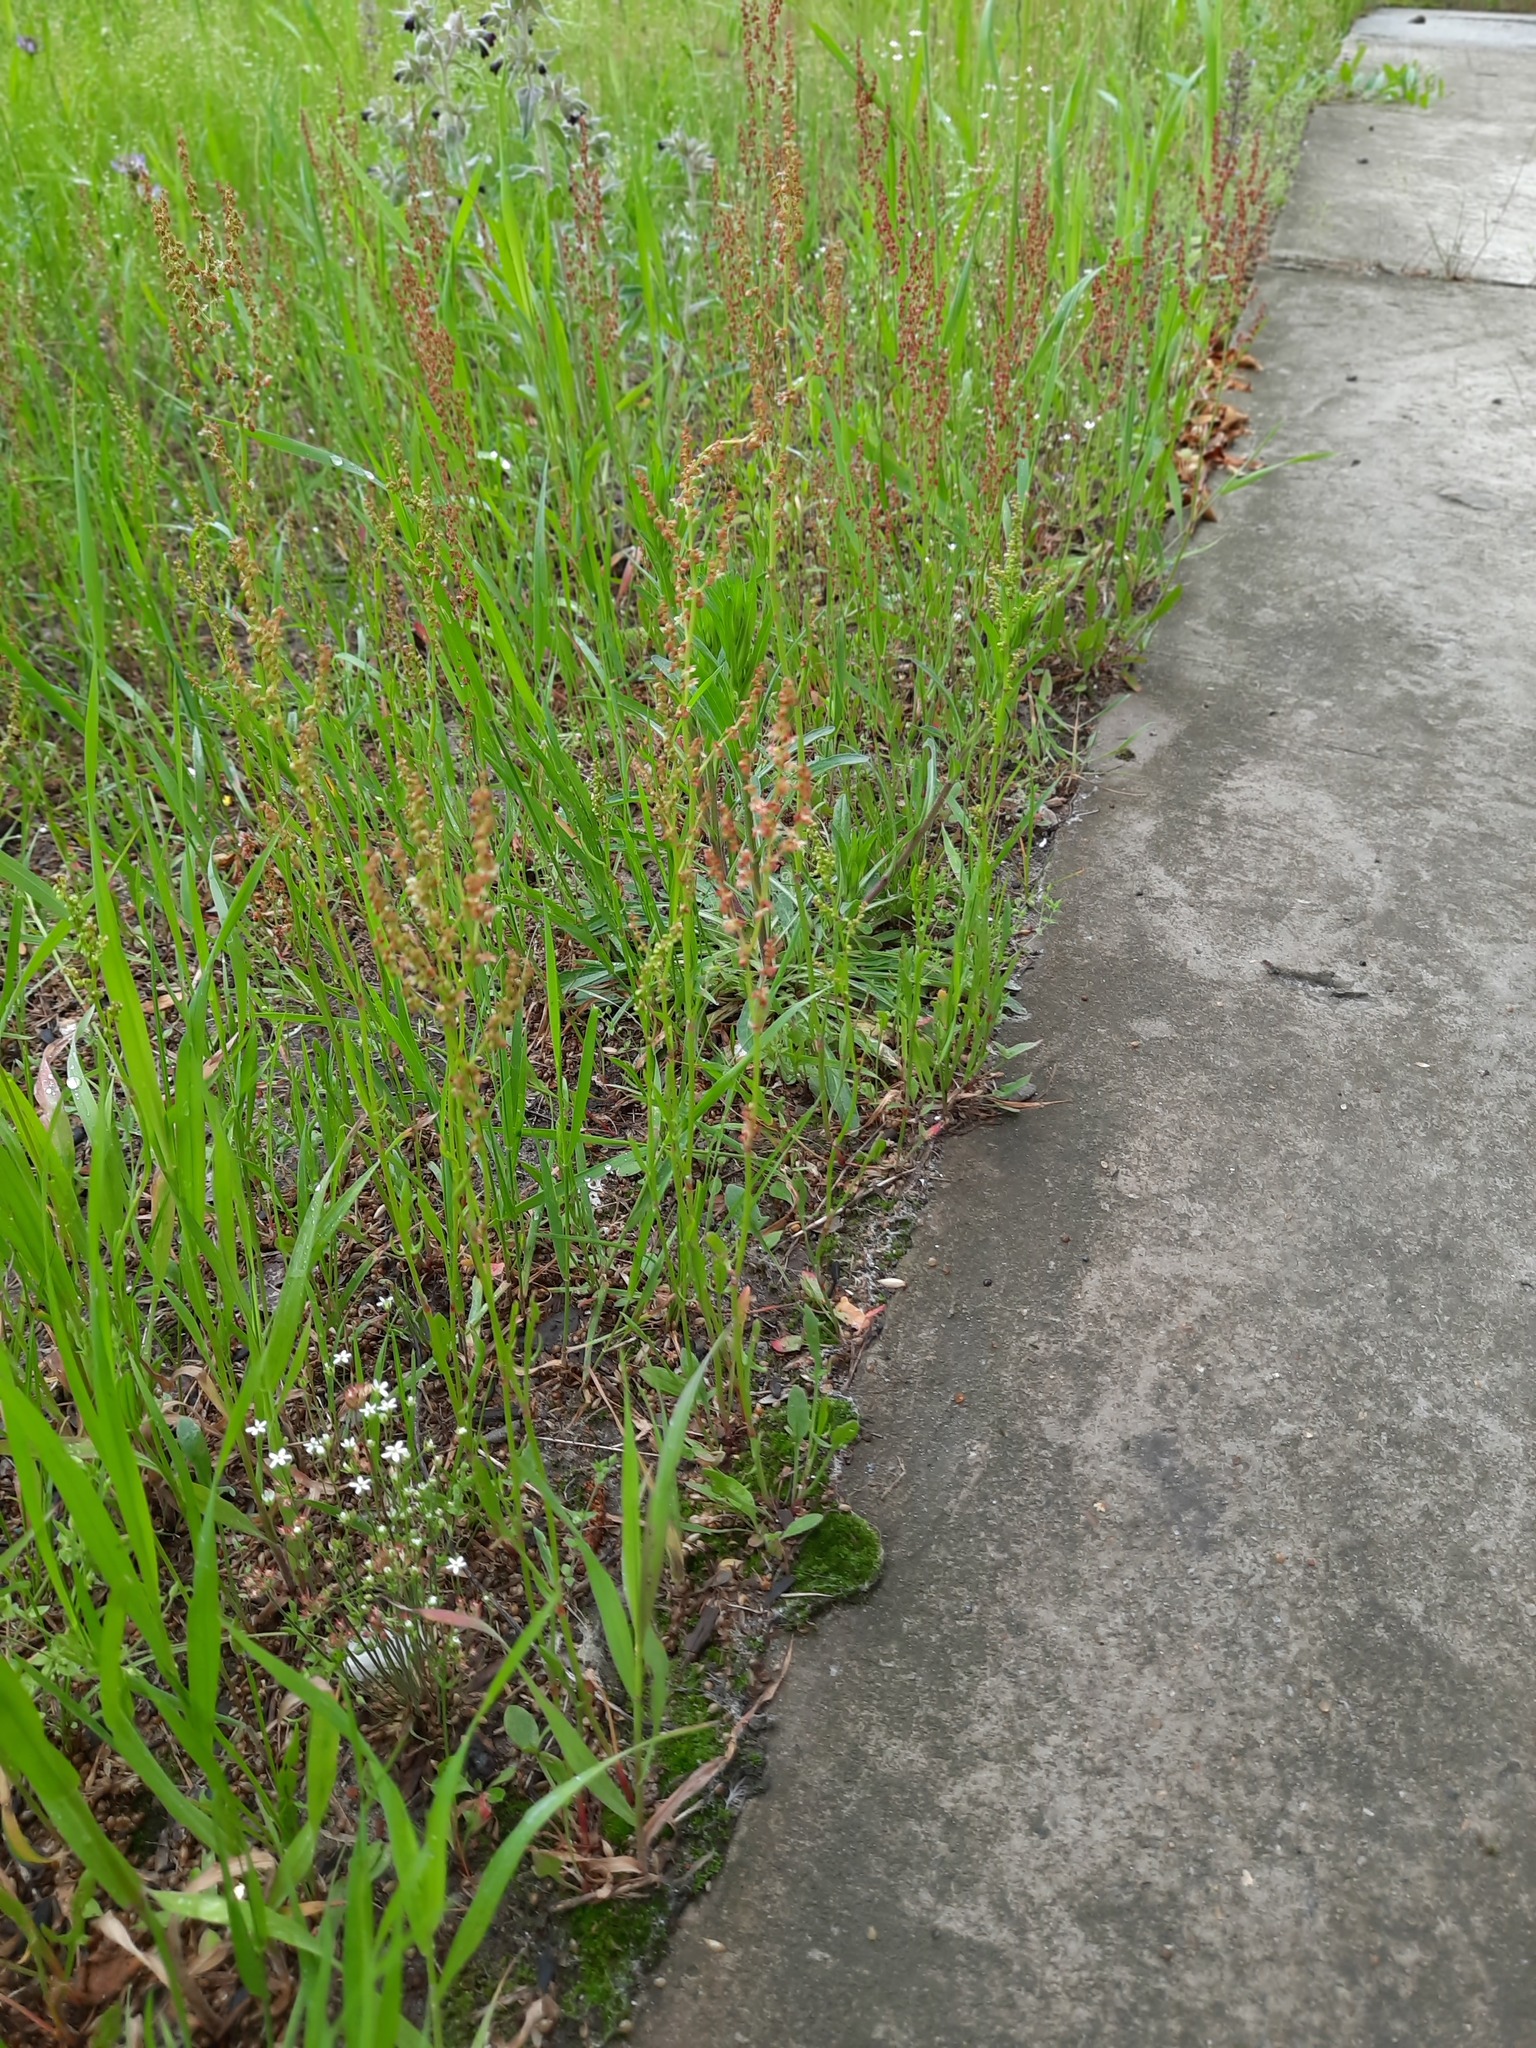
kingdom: Plantae
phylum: Tracheophyta
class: Magnoliopsida
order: Caryophyllales
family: Polygonaceae
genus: Rumex
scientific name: Rumex acetosella
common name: Common sheep sorrel
